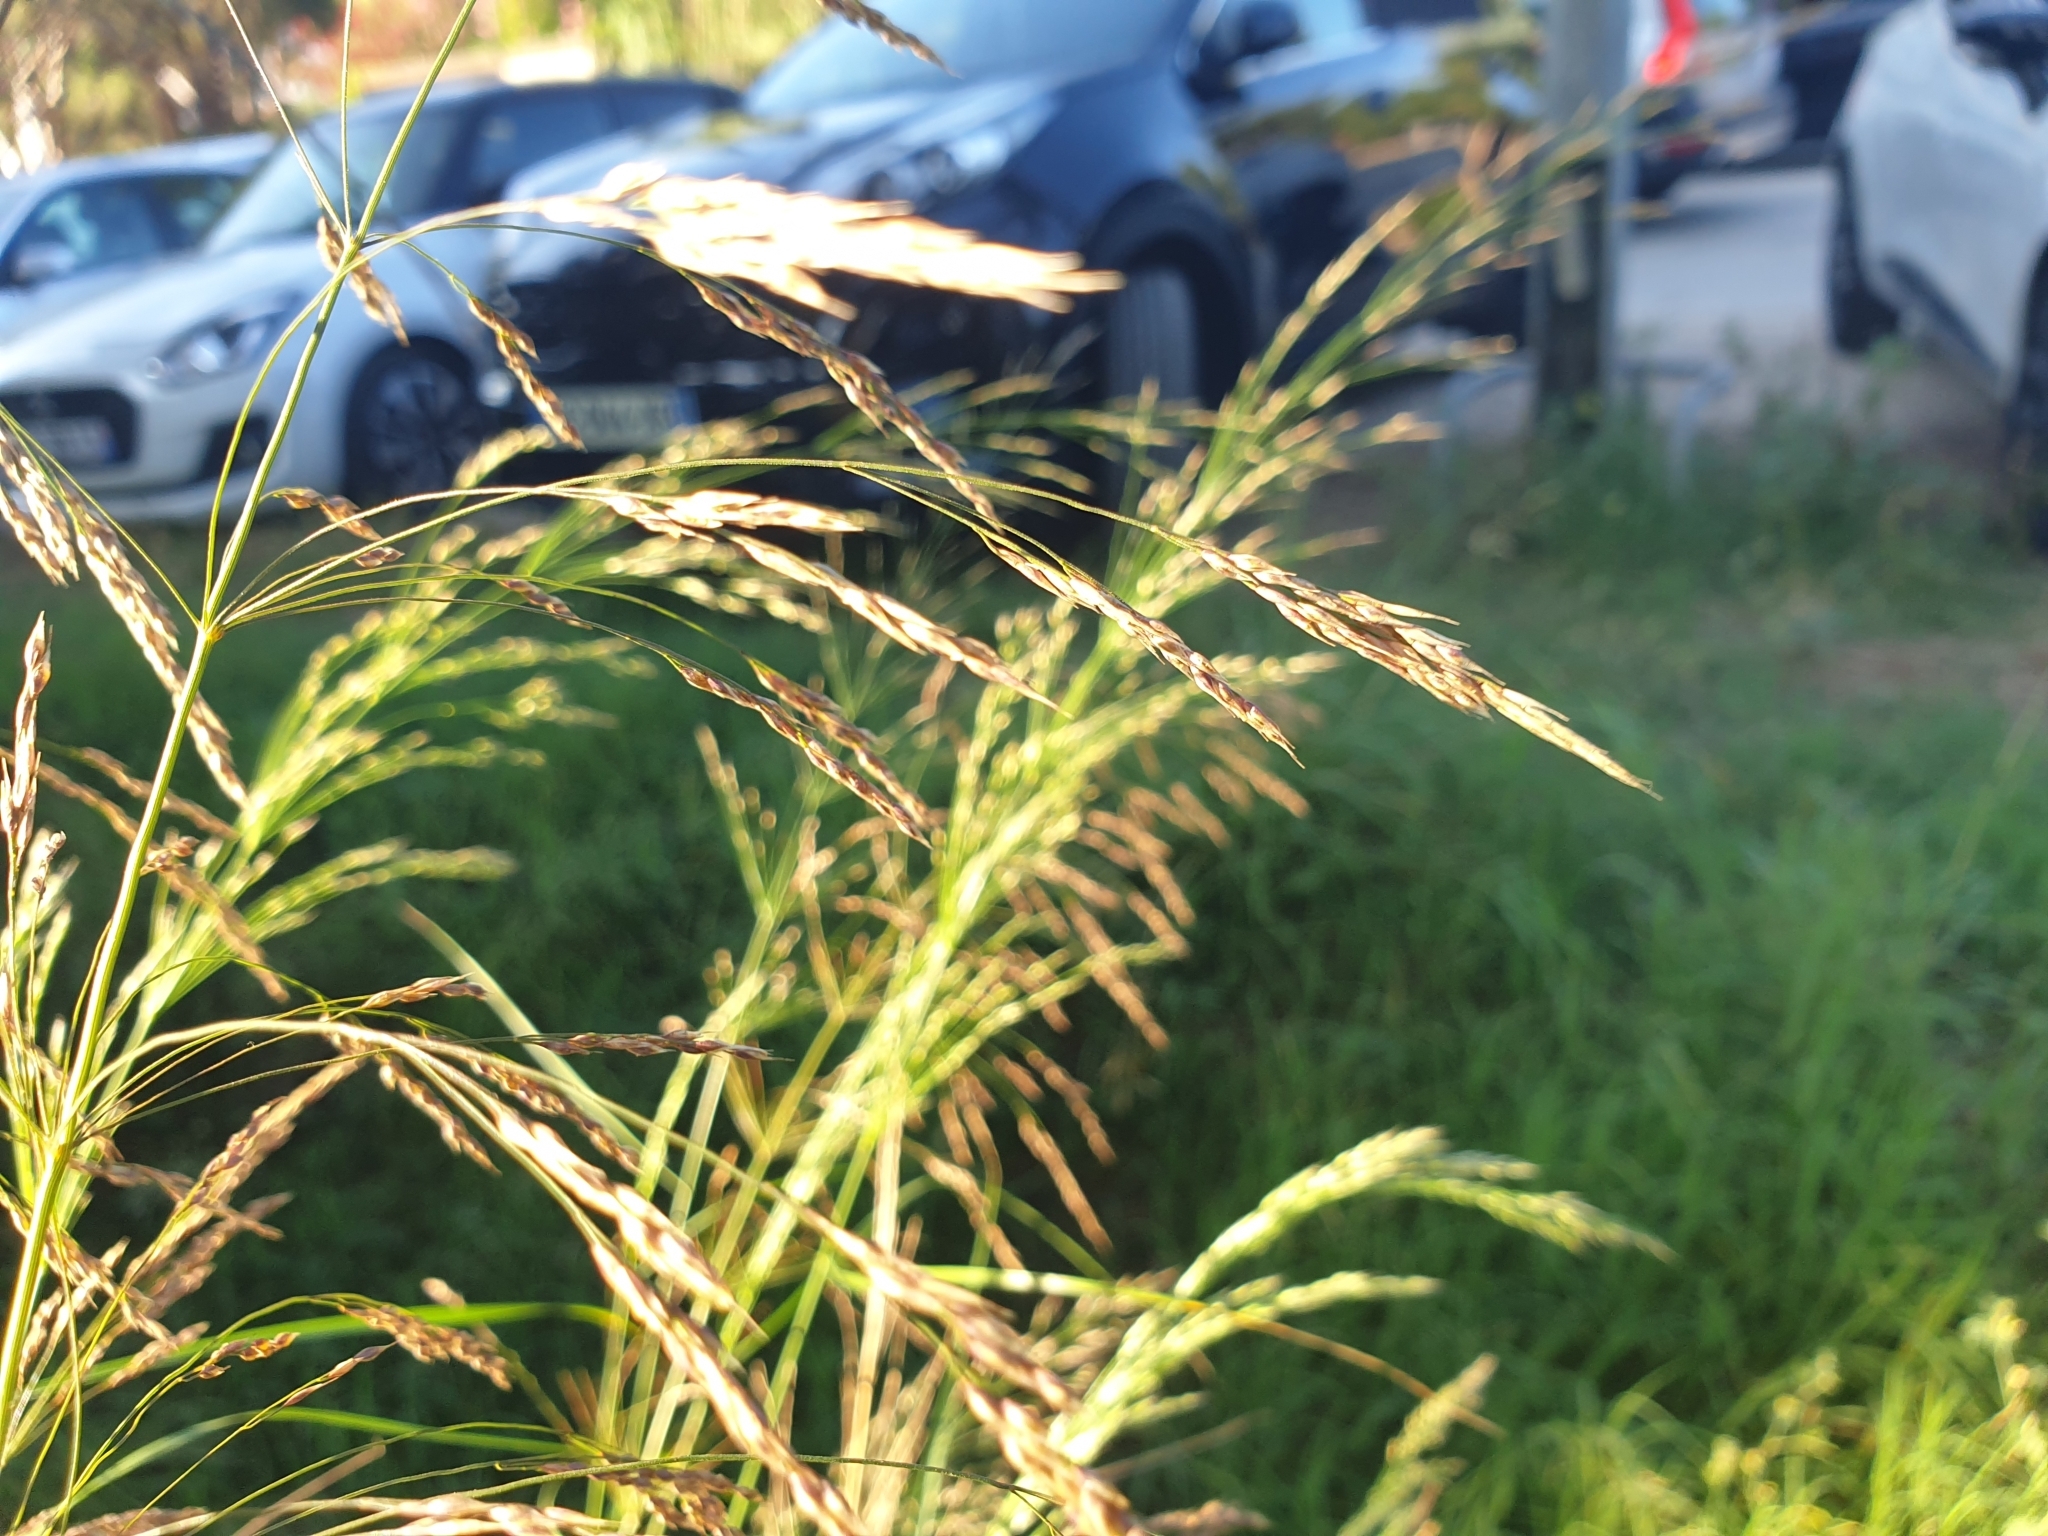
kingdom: Plantae
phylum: Tracheophyta
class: Liliopsida
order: Poales
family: Poaceae
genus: Oloptum
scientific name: Oloptum miliaceum
